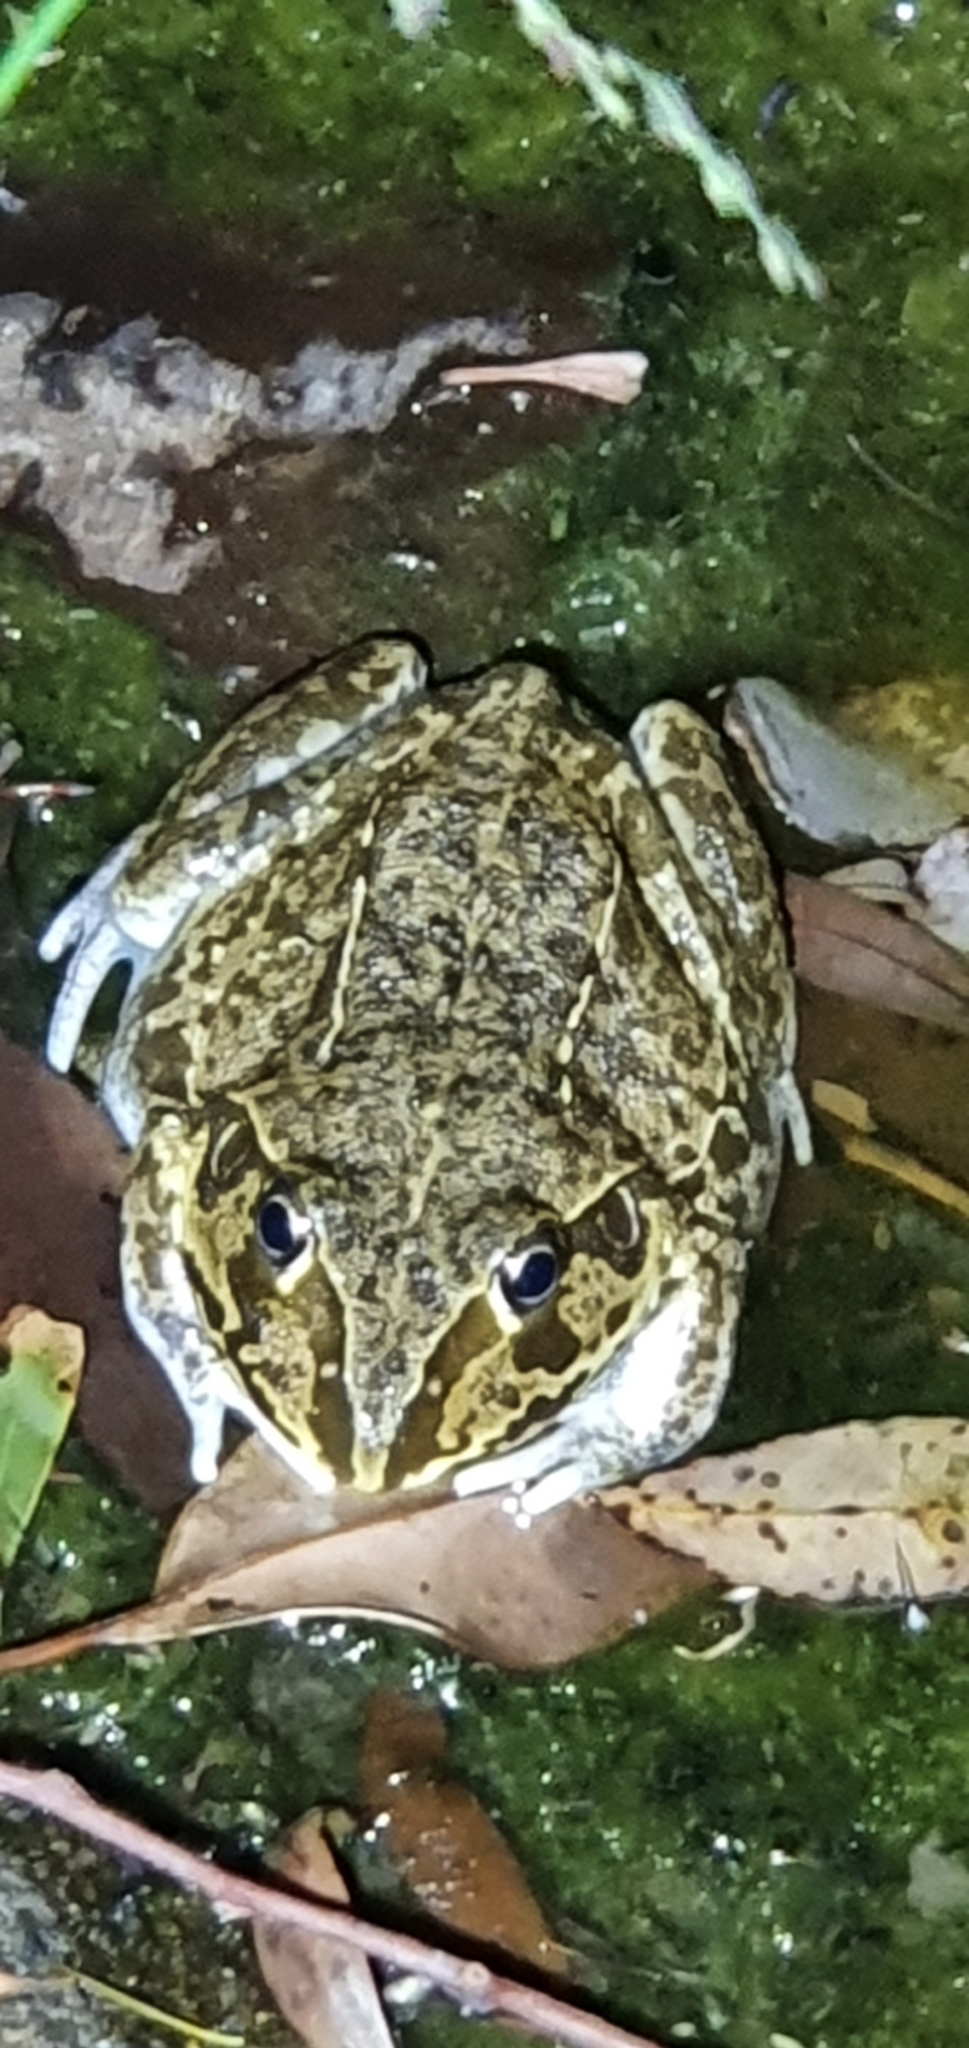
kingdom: Animalia
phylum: Chordata
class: Amphibia
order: Anura
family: Pelodryadidae
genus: Ranoidea
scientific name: Ranoidea novaehollandiae
